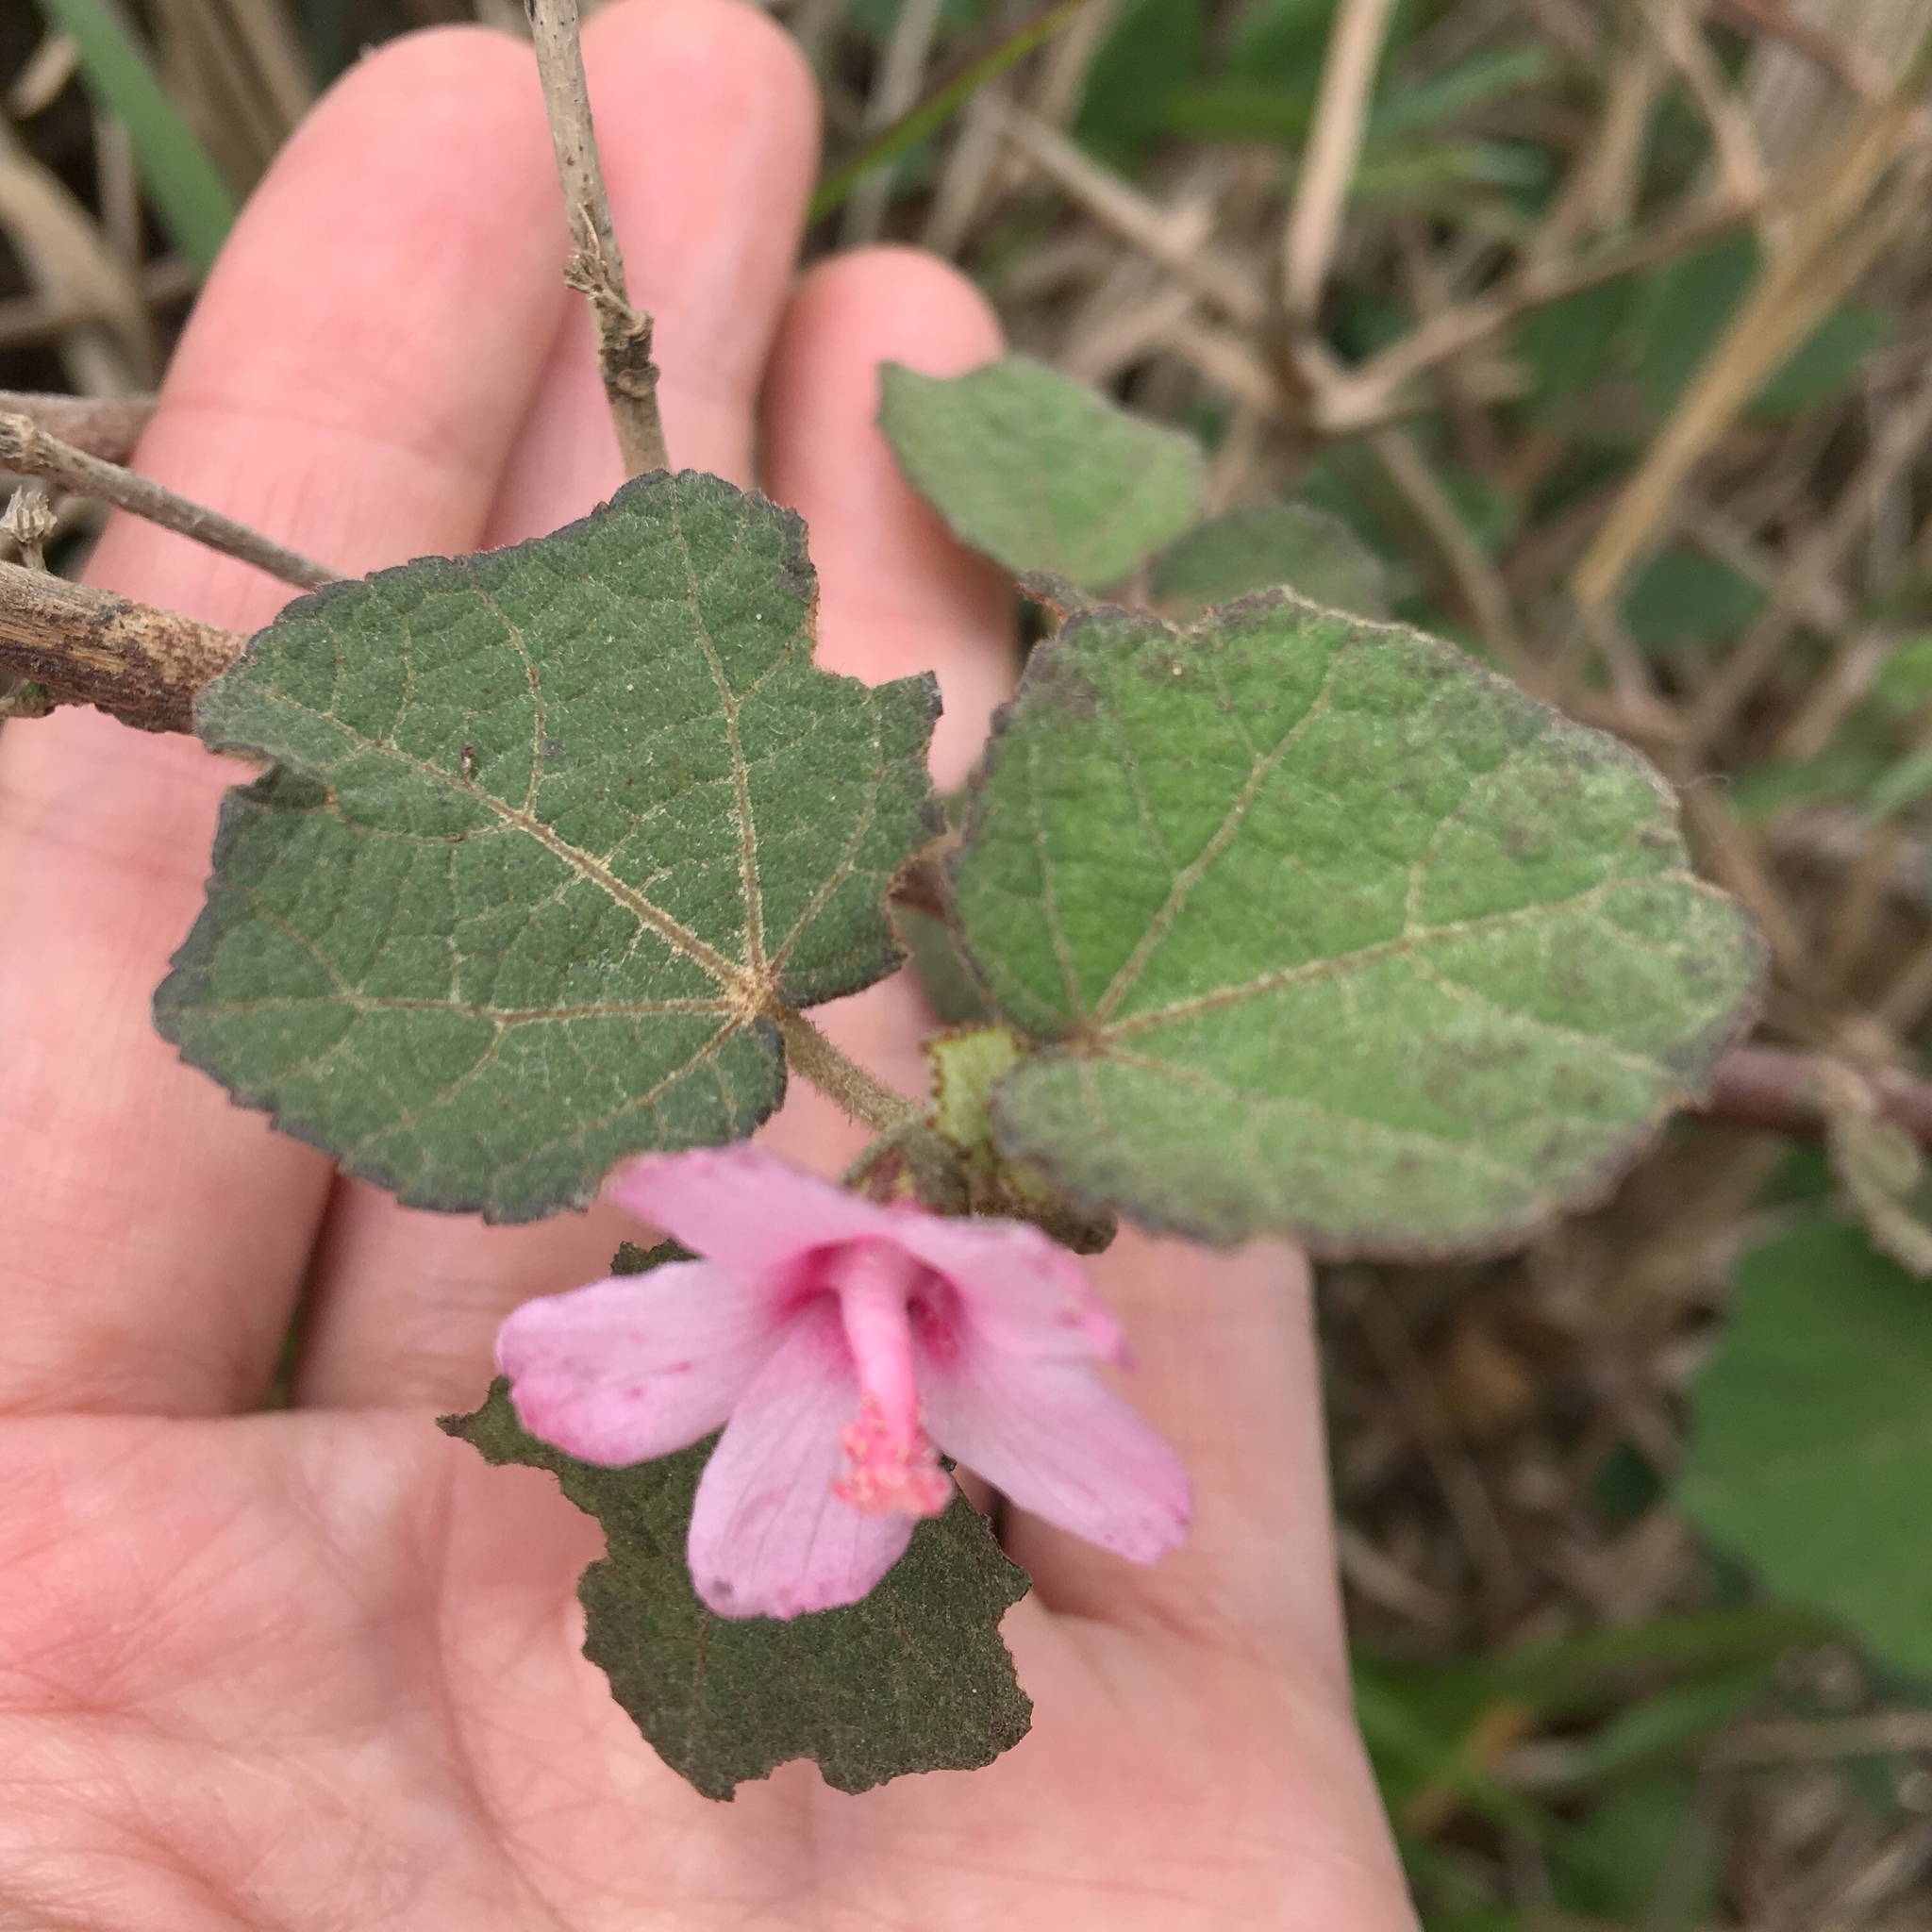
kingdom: Plantae
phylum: Tracheophyta
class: Magnoliopsida
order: Malvales
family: Malvaceae
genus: Urena
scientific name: Urena lobata
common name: Caesarweed
